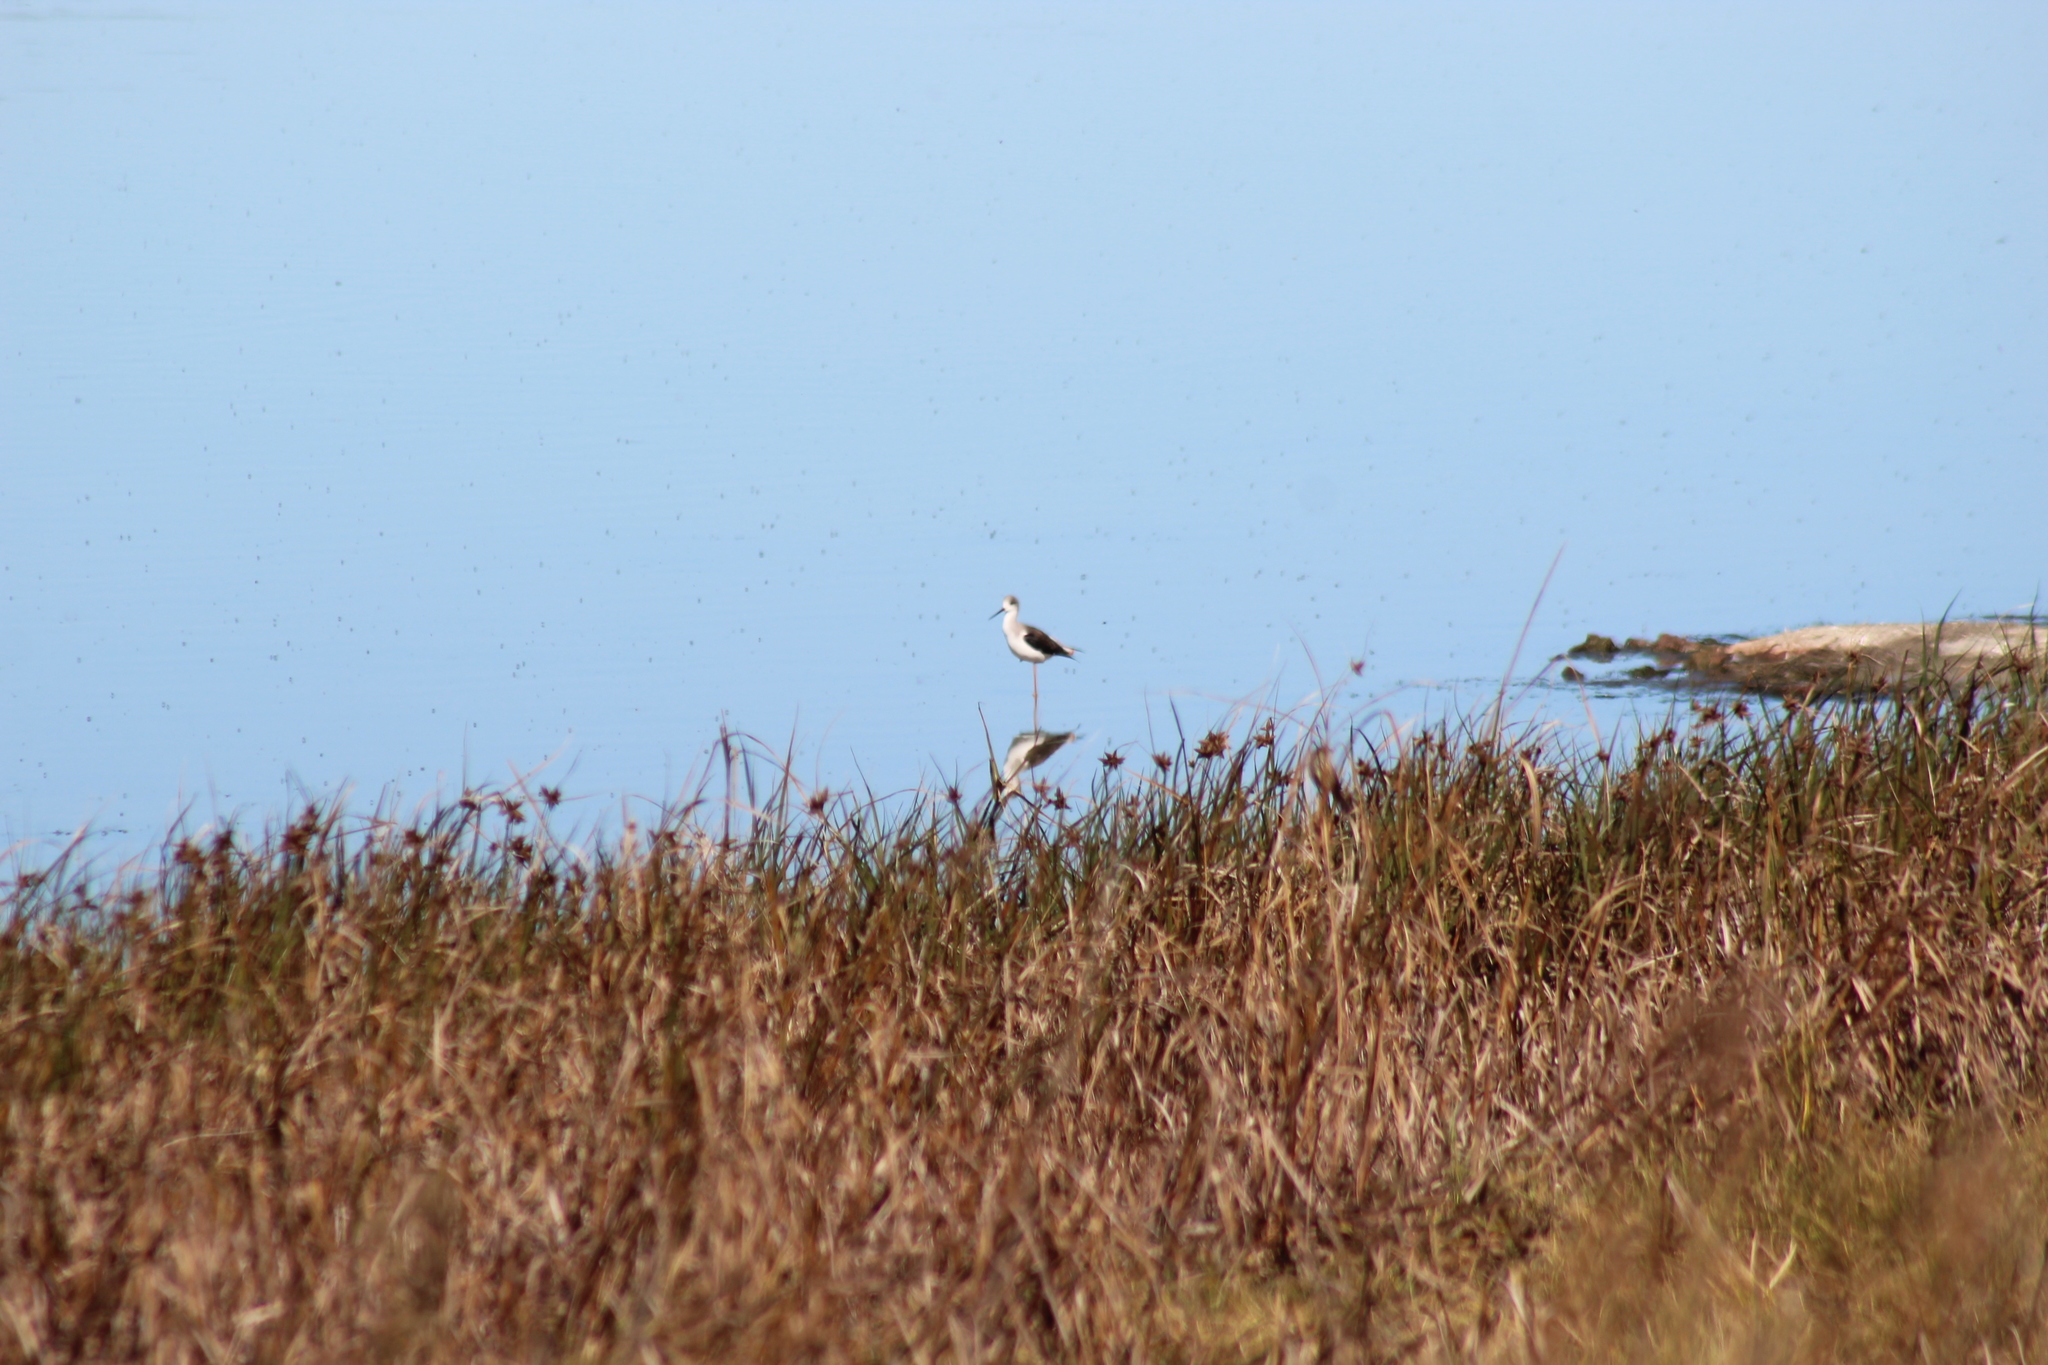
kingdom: Animalia
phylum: Chordata
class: Aves
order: Charadriiformes
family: Recurvirostridae
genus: Himantopus
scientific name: Himantopus himantopus
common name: Black-winged stilt
